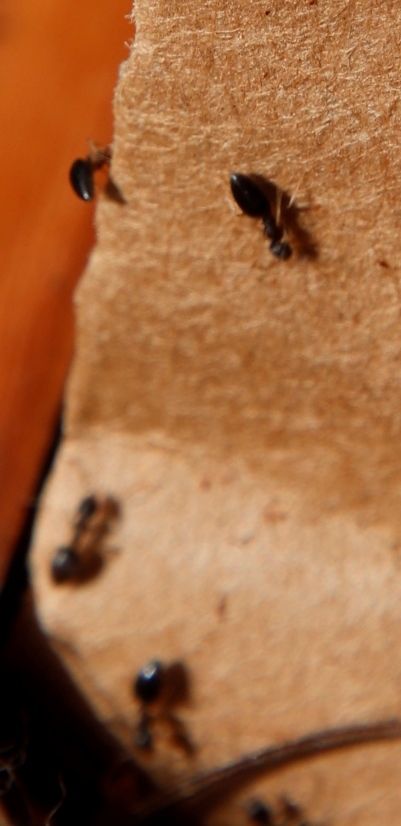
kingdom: Animalia
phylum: Arthropoda
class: Insecta
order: Hymenoptera
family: Formicidae
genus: Tapinoma
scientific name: Tapinoma pallipes
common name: Ant
